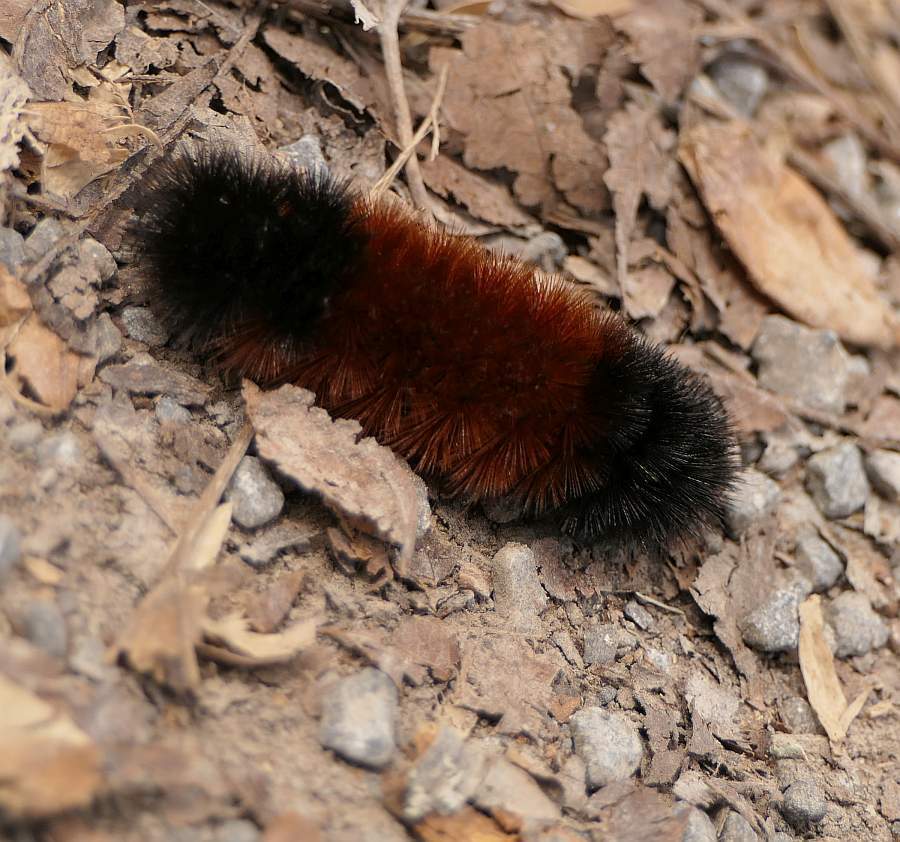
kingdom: Animalia
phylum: Arthropoda
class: Insecta
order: Lepidoptera
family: Erebidae
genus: Pyrrharctia
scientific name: Pyrrharctia isabella
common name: Isabella tiger moth
